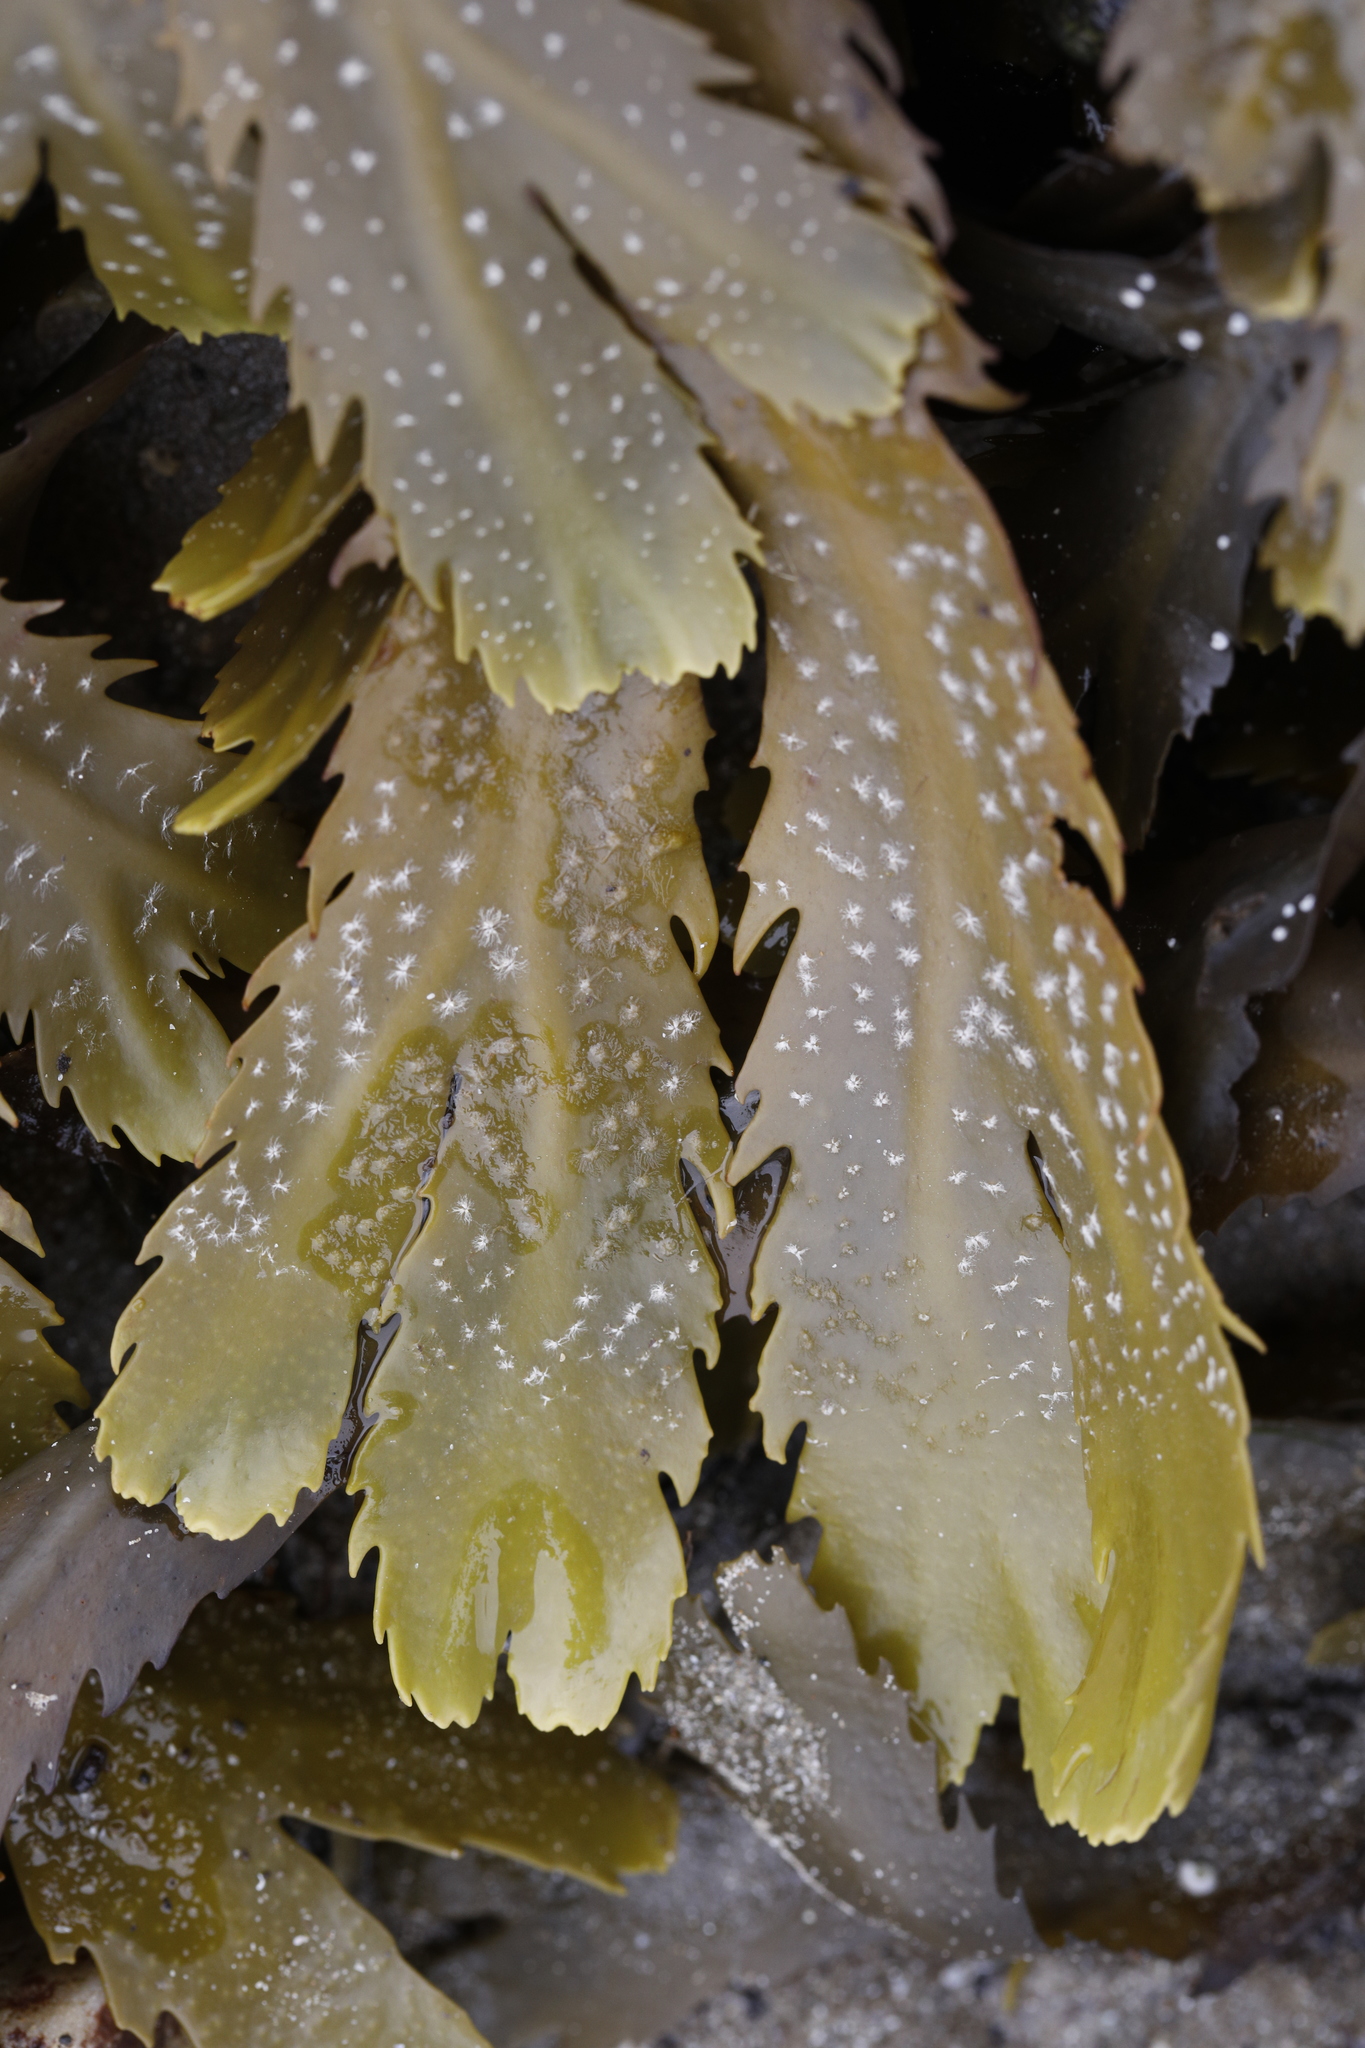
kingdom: Chromista
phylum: Ochrophyta
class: Phaeophyceae
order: Fucales
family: Fucaceae
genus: Fucus
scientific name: Fucus serratus
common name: Toothed wrack
